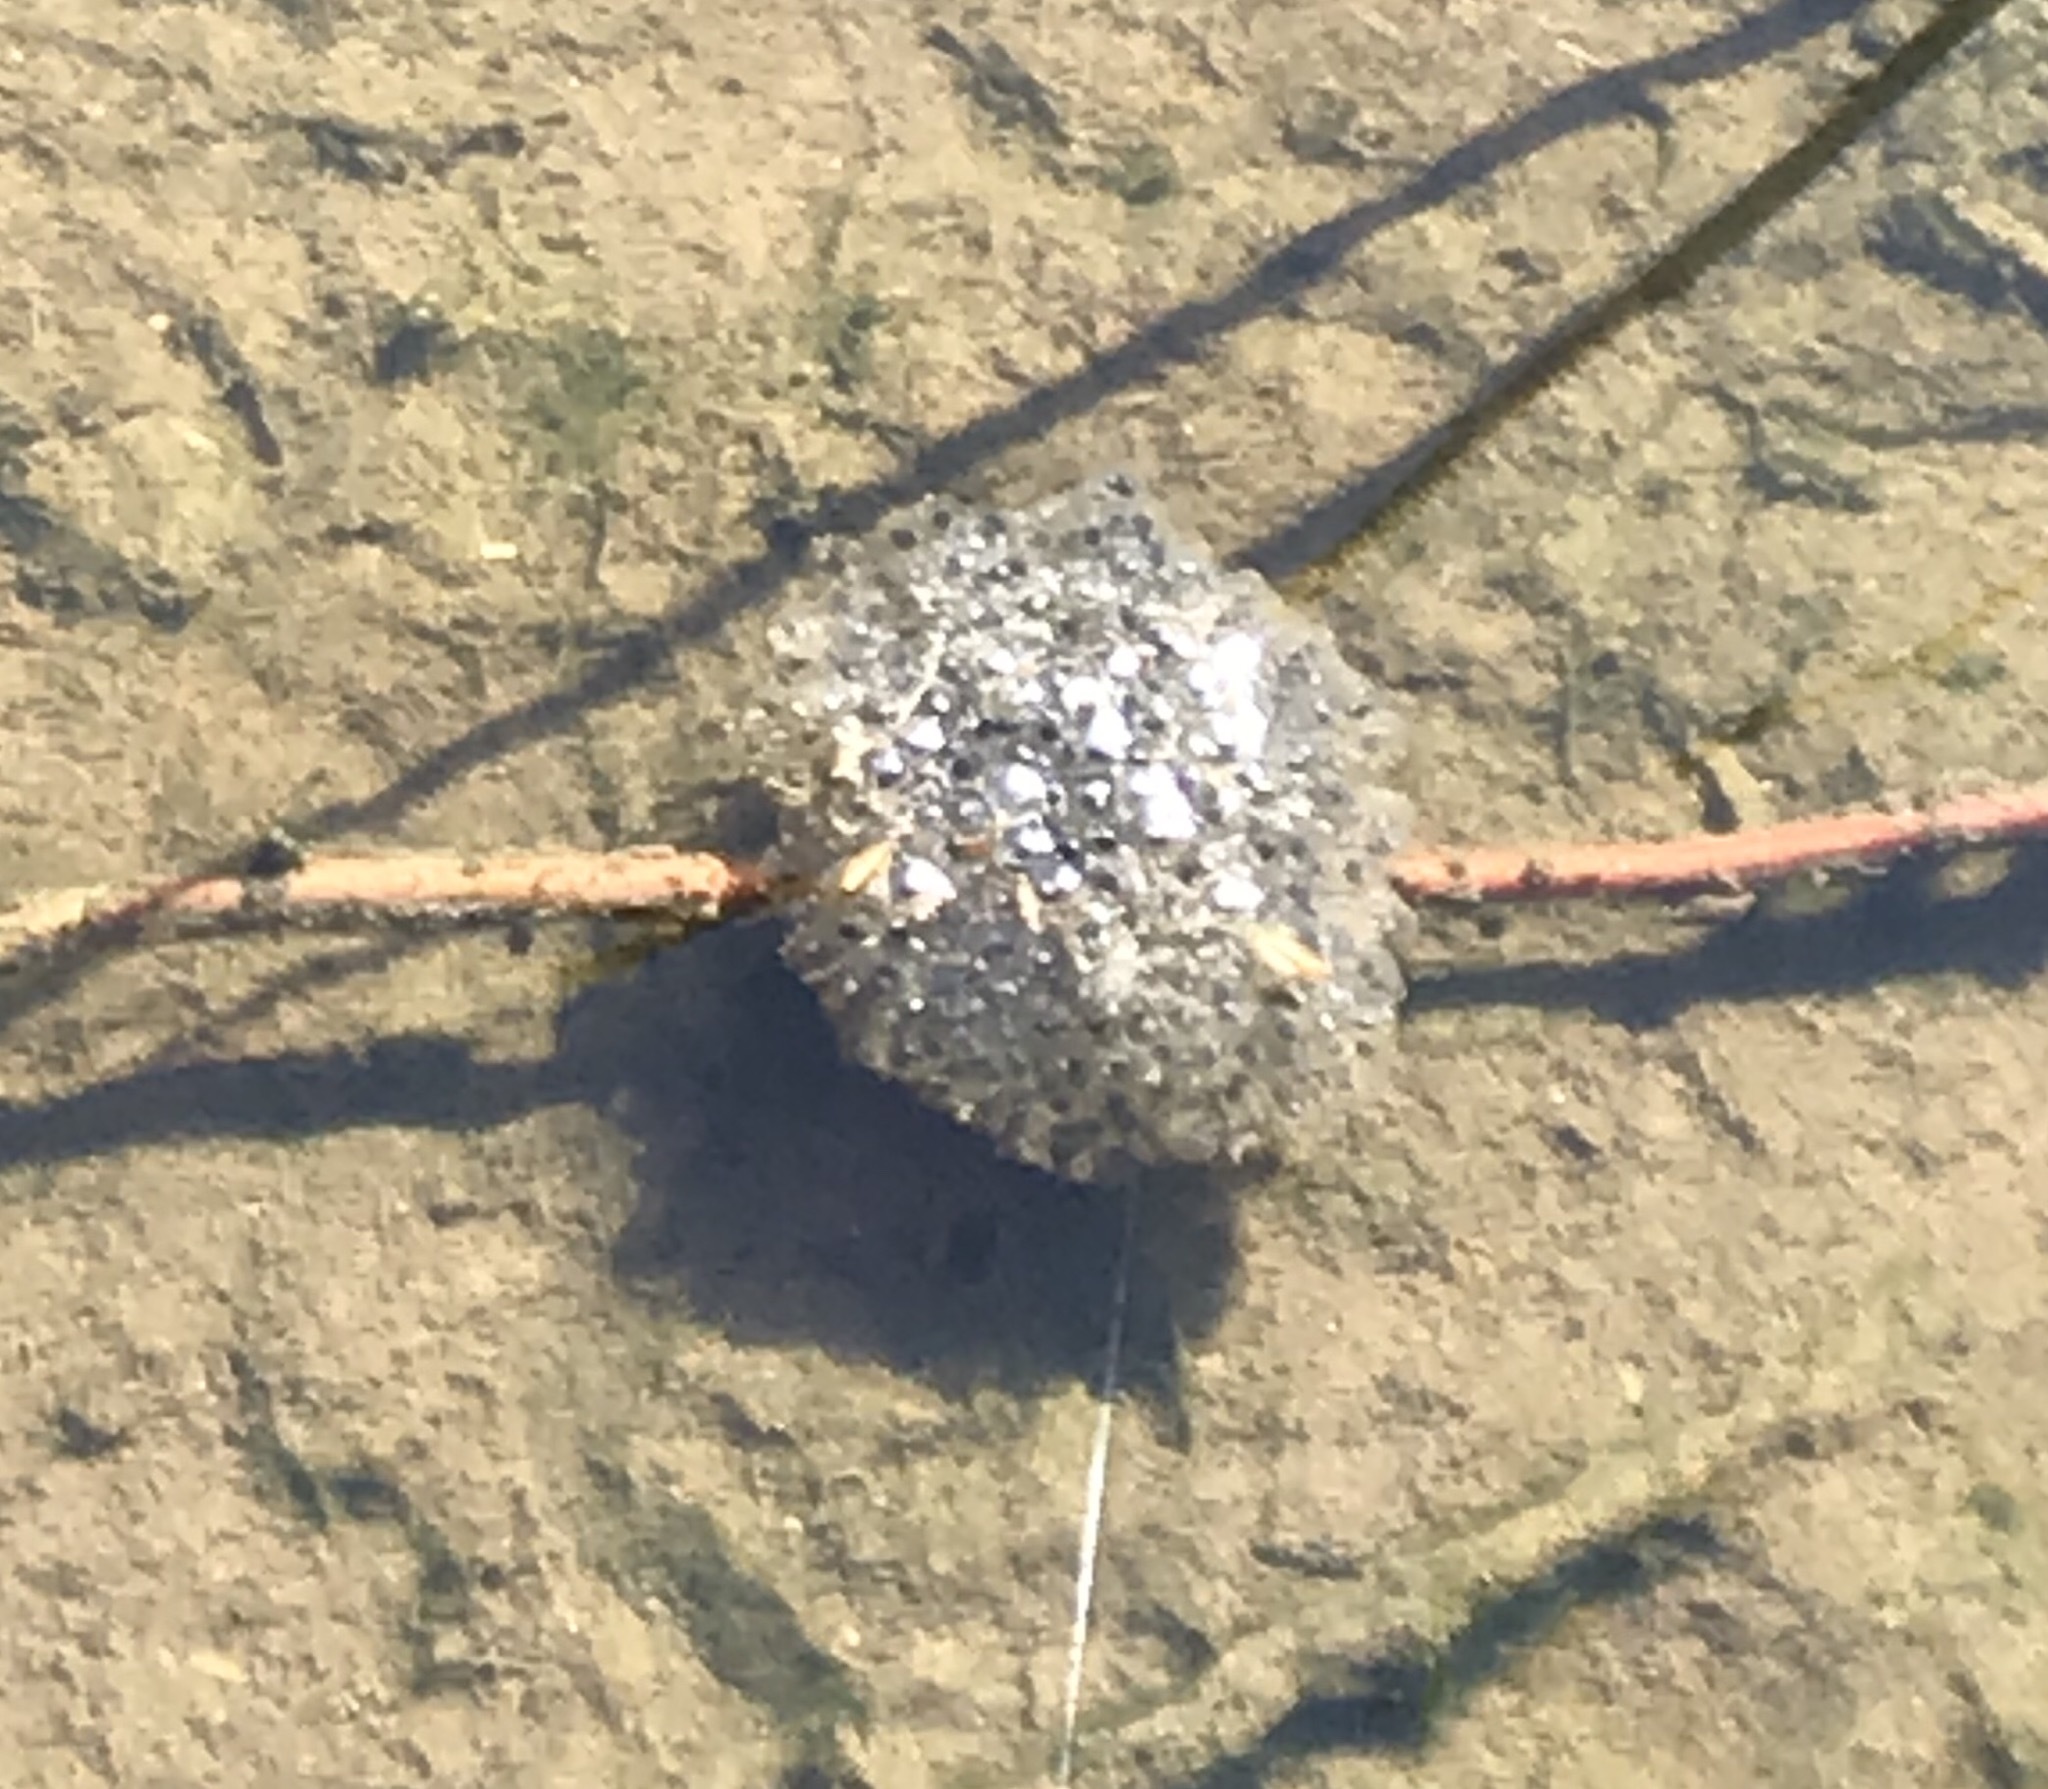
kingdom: Animalia
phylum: Chordata
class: Amphibia
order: Anura
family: Ranidae
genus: Lithobates
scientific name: Lithobates sylvaticus
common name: Wood frog
